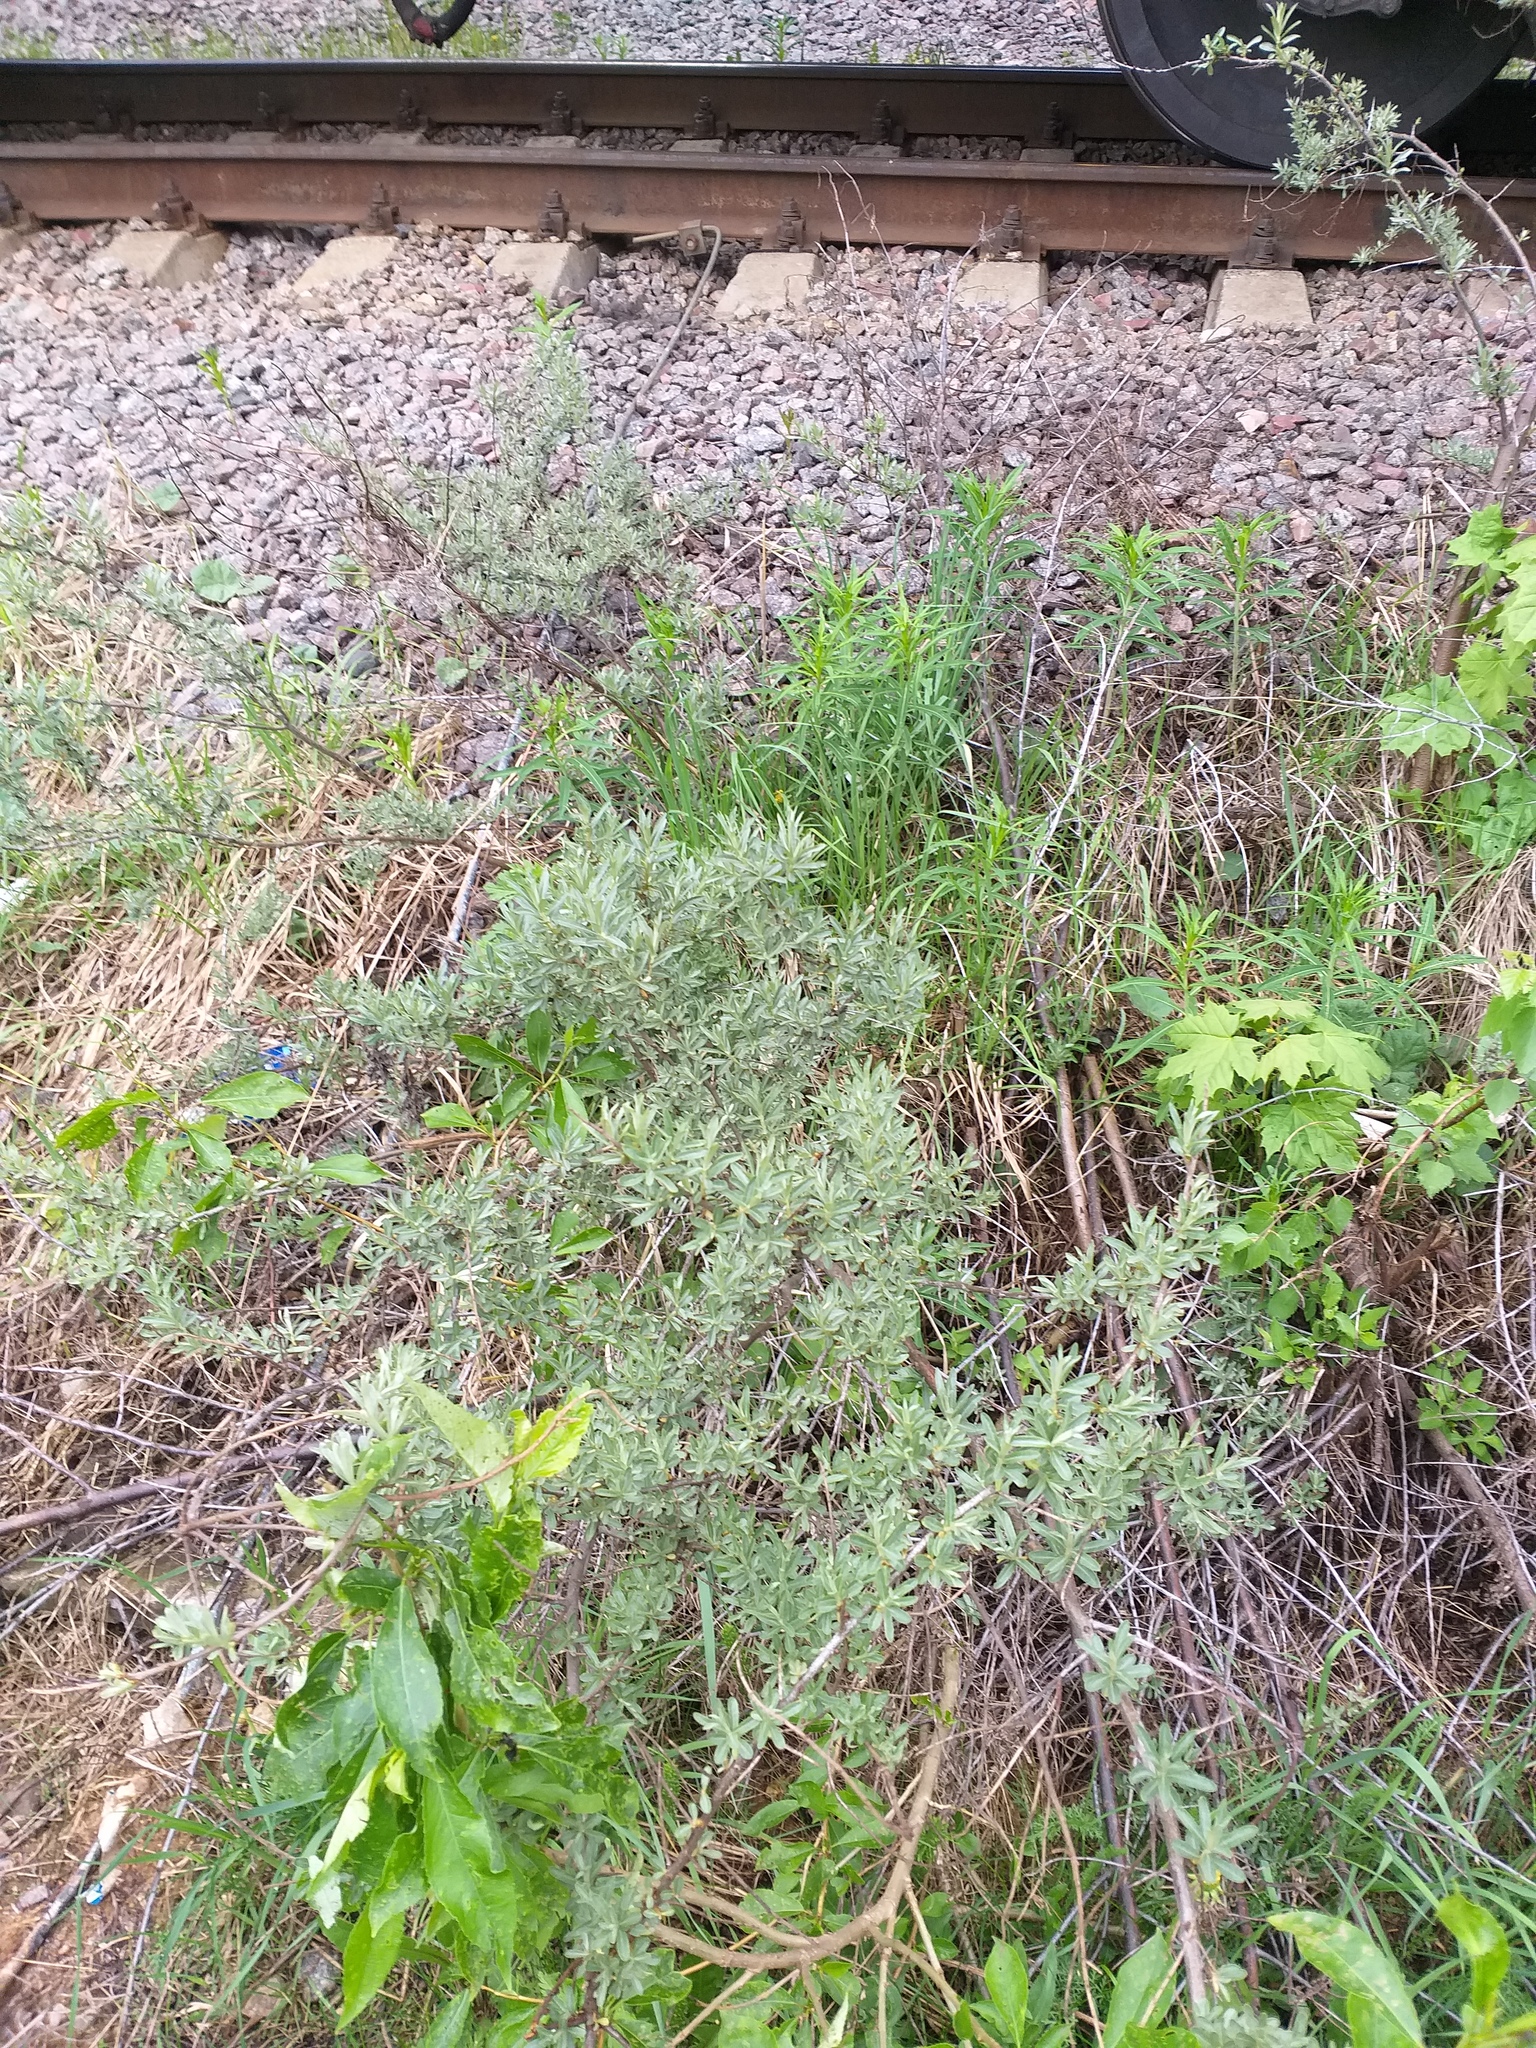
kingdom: Plantae
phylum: Tracheophyta
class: Magnoliopsida
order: Rosales
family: Elaeagnaceae
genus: Hippophae
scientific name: Hippophae rhamnoides
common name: Sea-buckthorn
